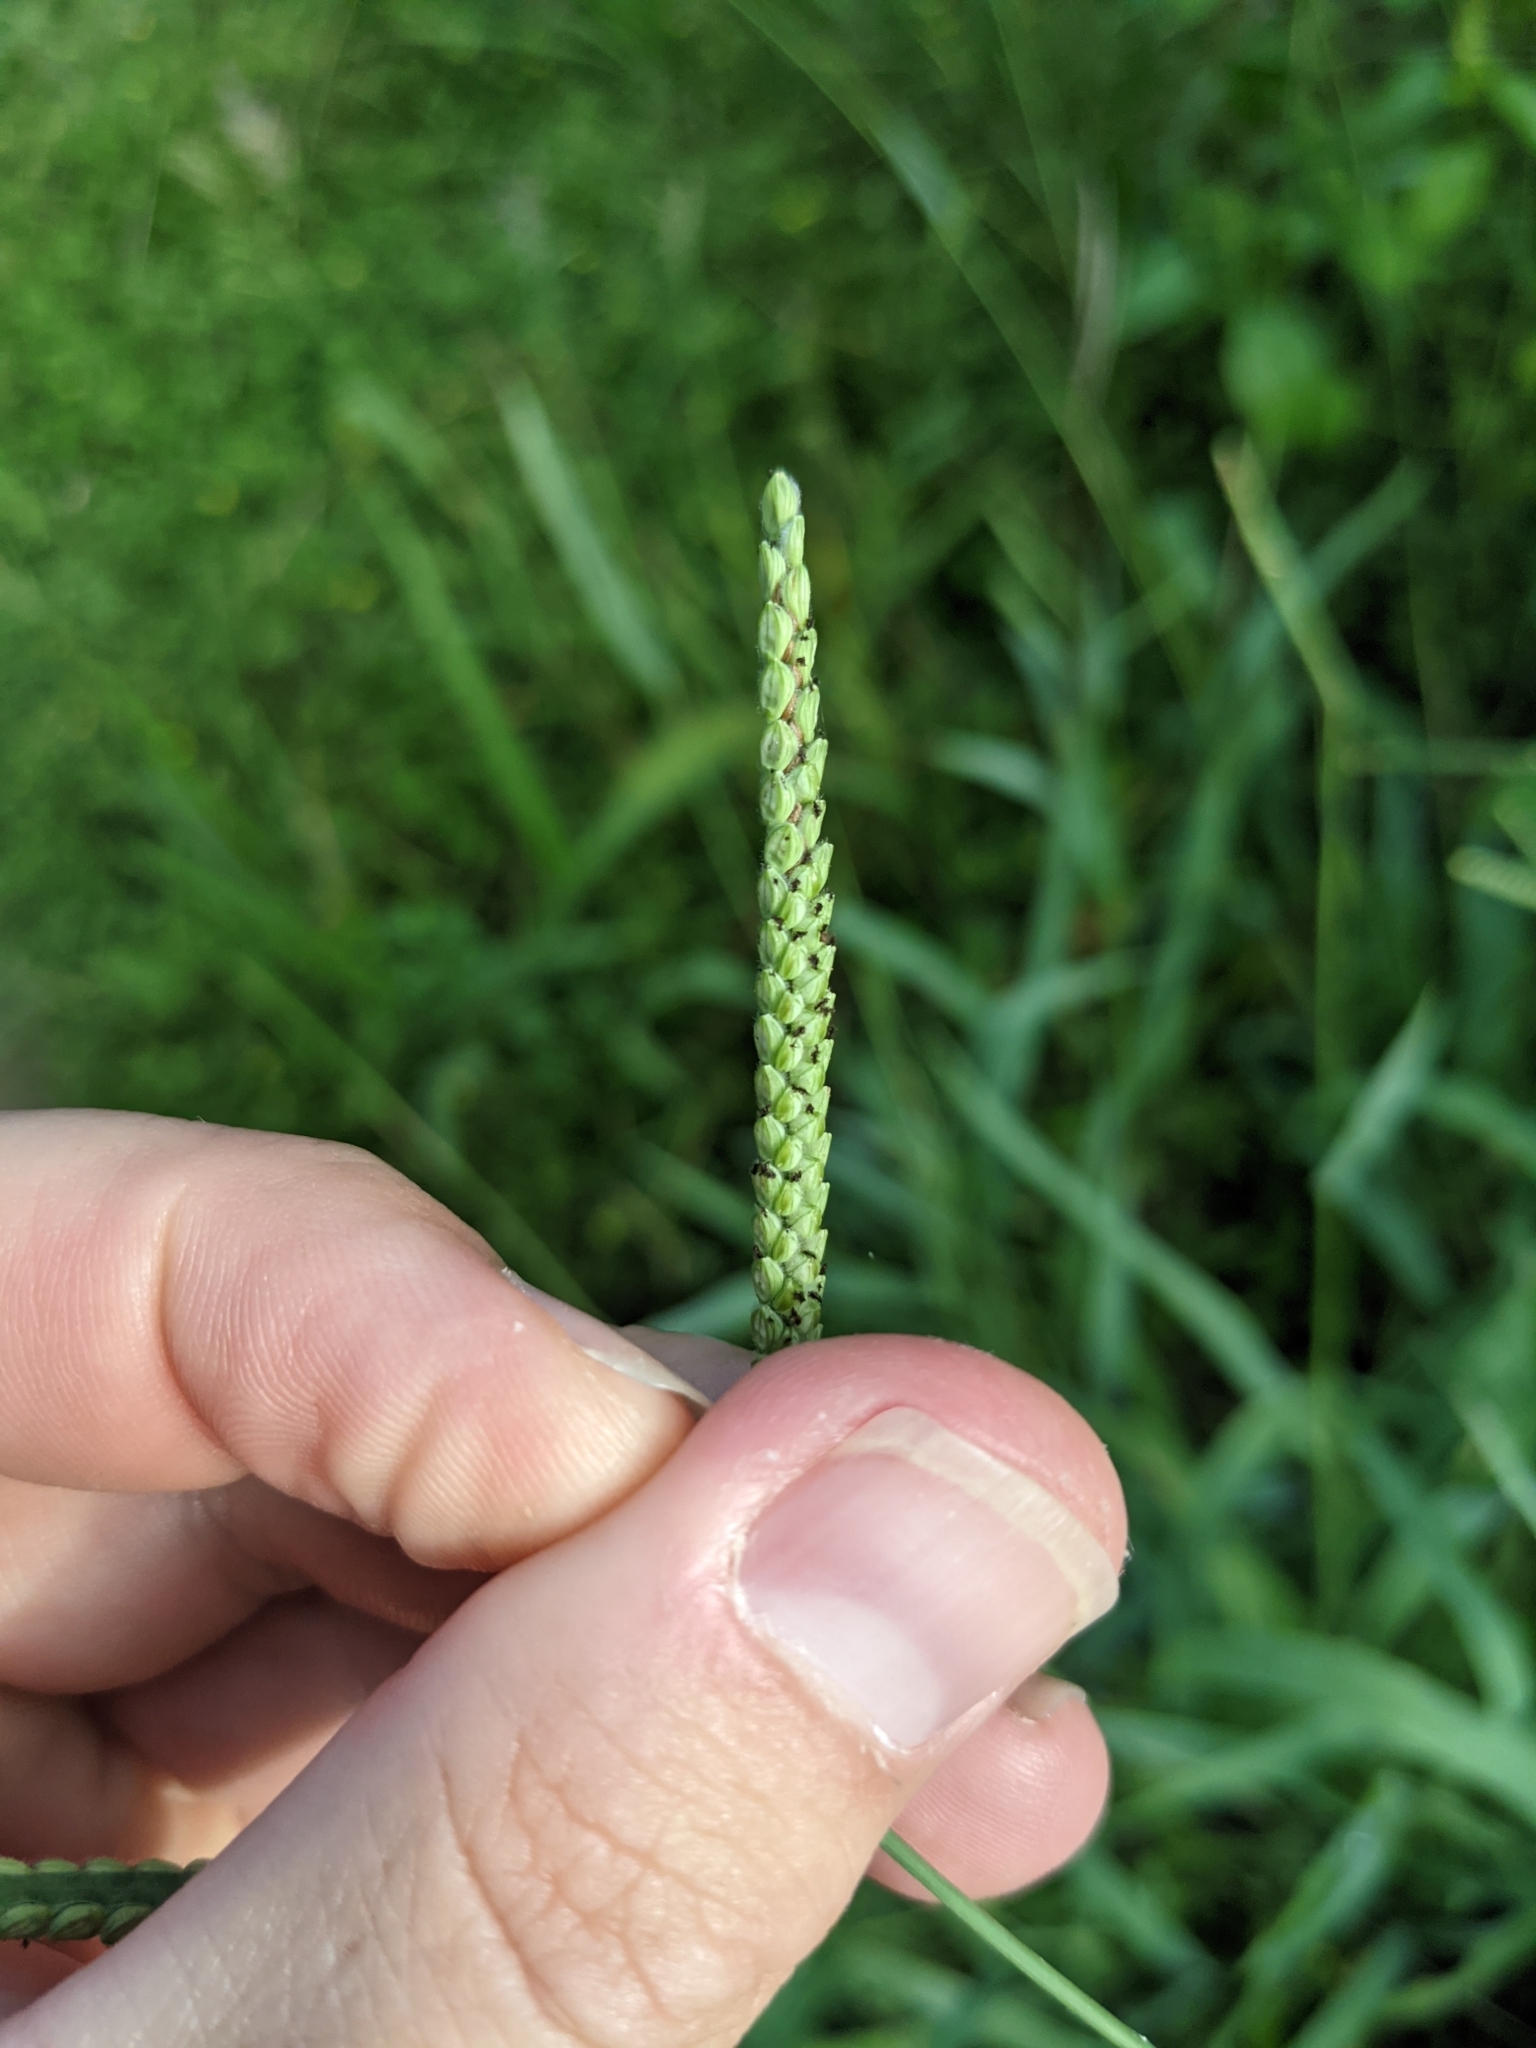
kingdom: Plantae
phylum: Tracheophyta
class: Liliopsida
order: Poales
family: Poaceae
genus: Paspalum
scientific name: Paspalum pubiflorum
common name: Hairy-seed paspalum
